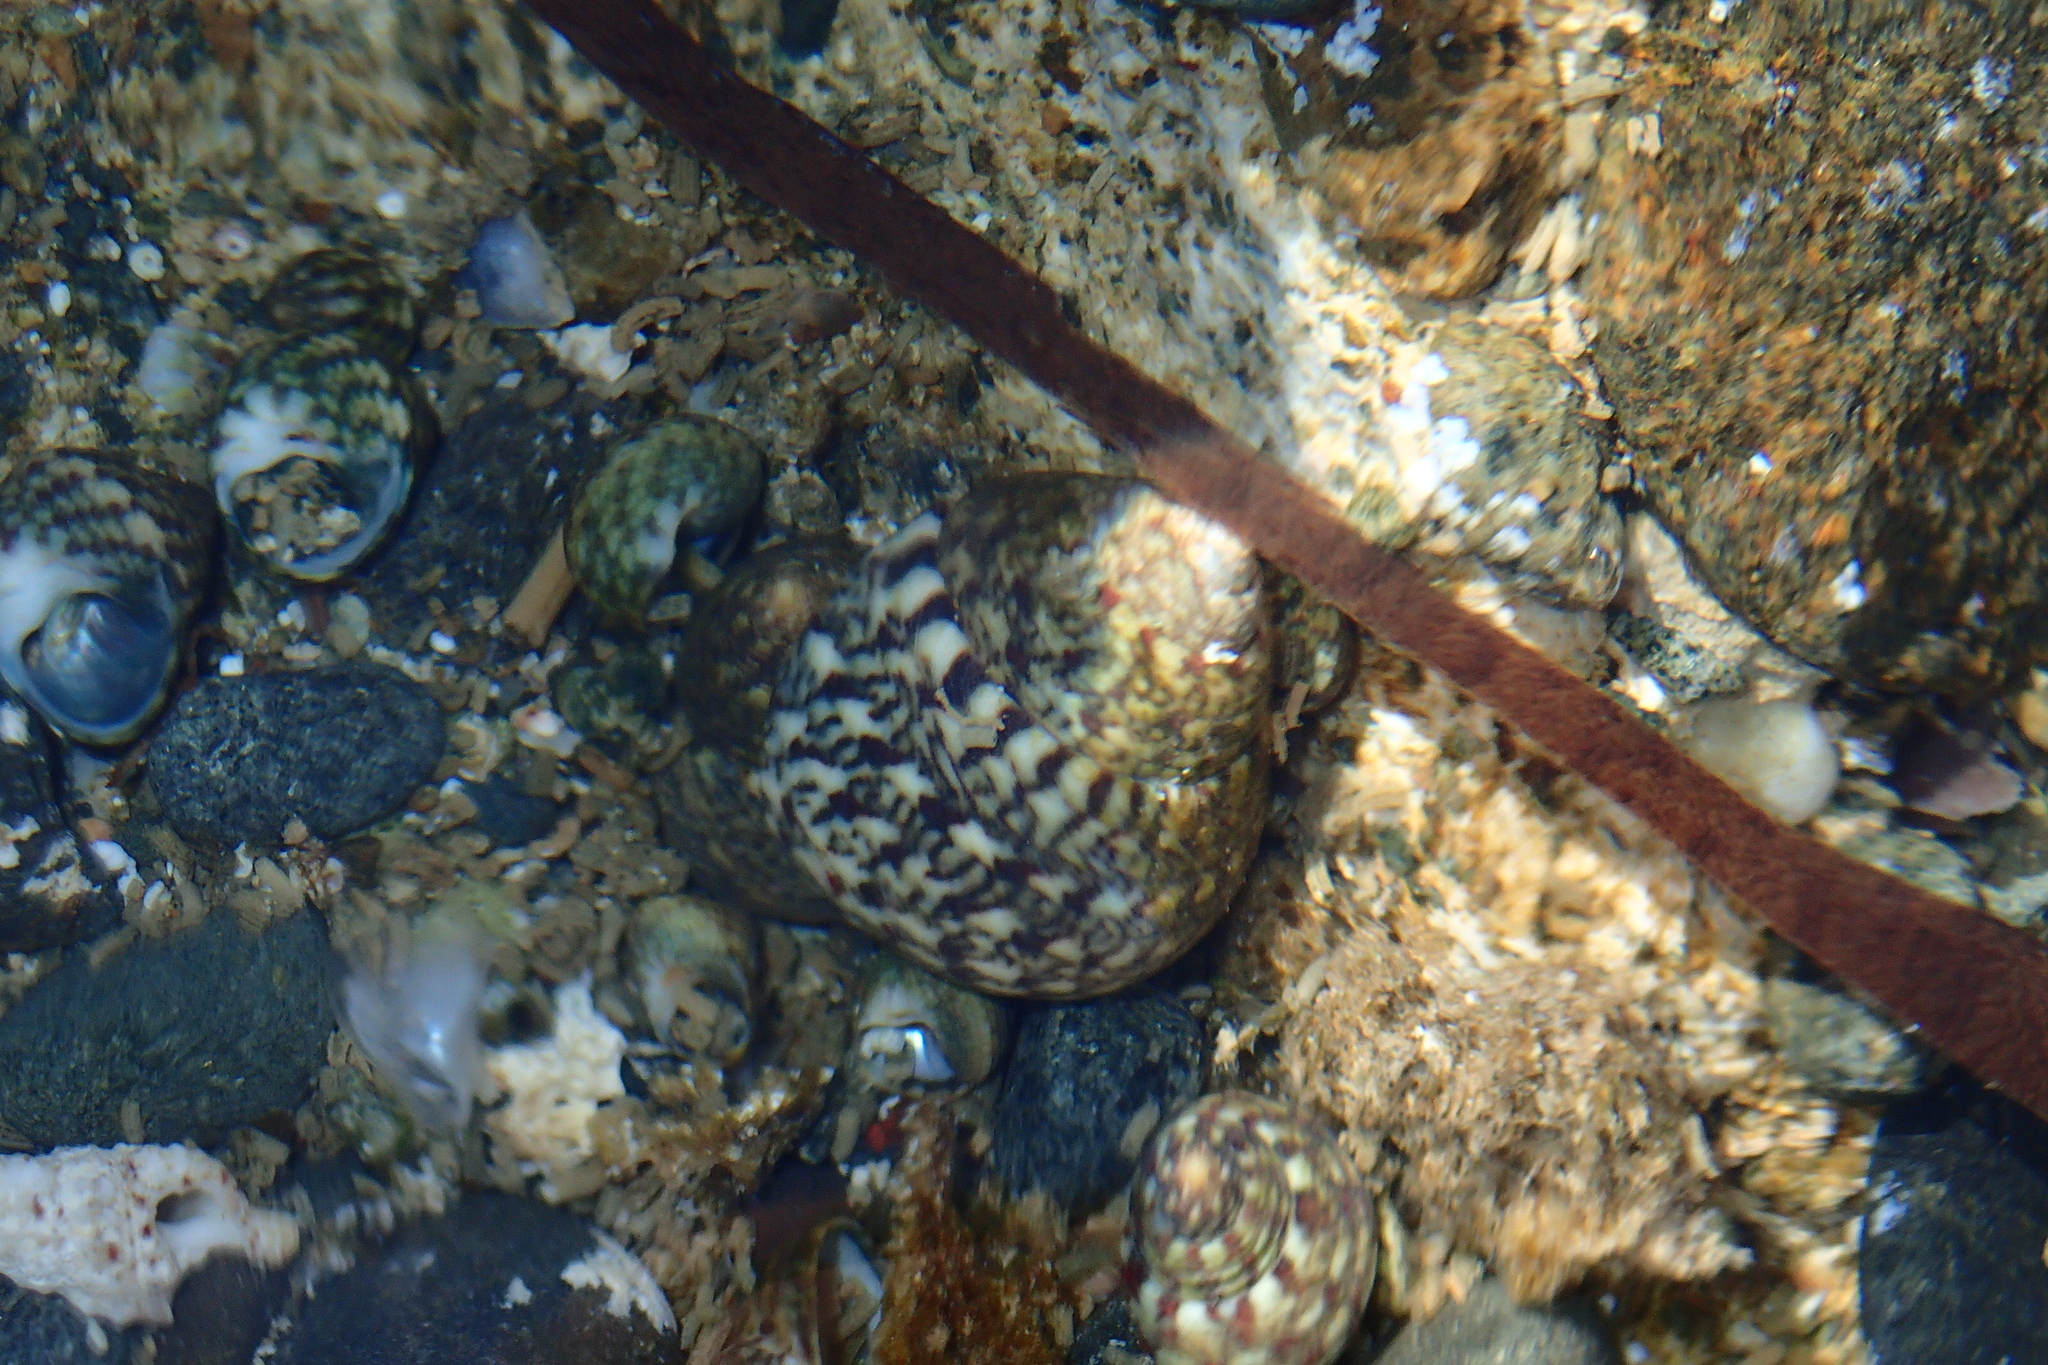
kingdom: Animalia
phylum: Mollusca
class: Gastropoda
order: Trochida
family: Trochidae
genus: Phorcus
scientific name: Phorcus articulatus
